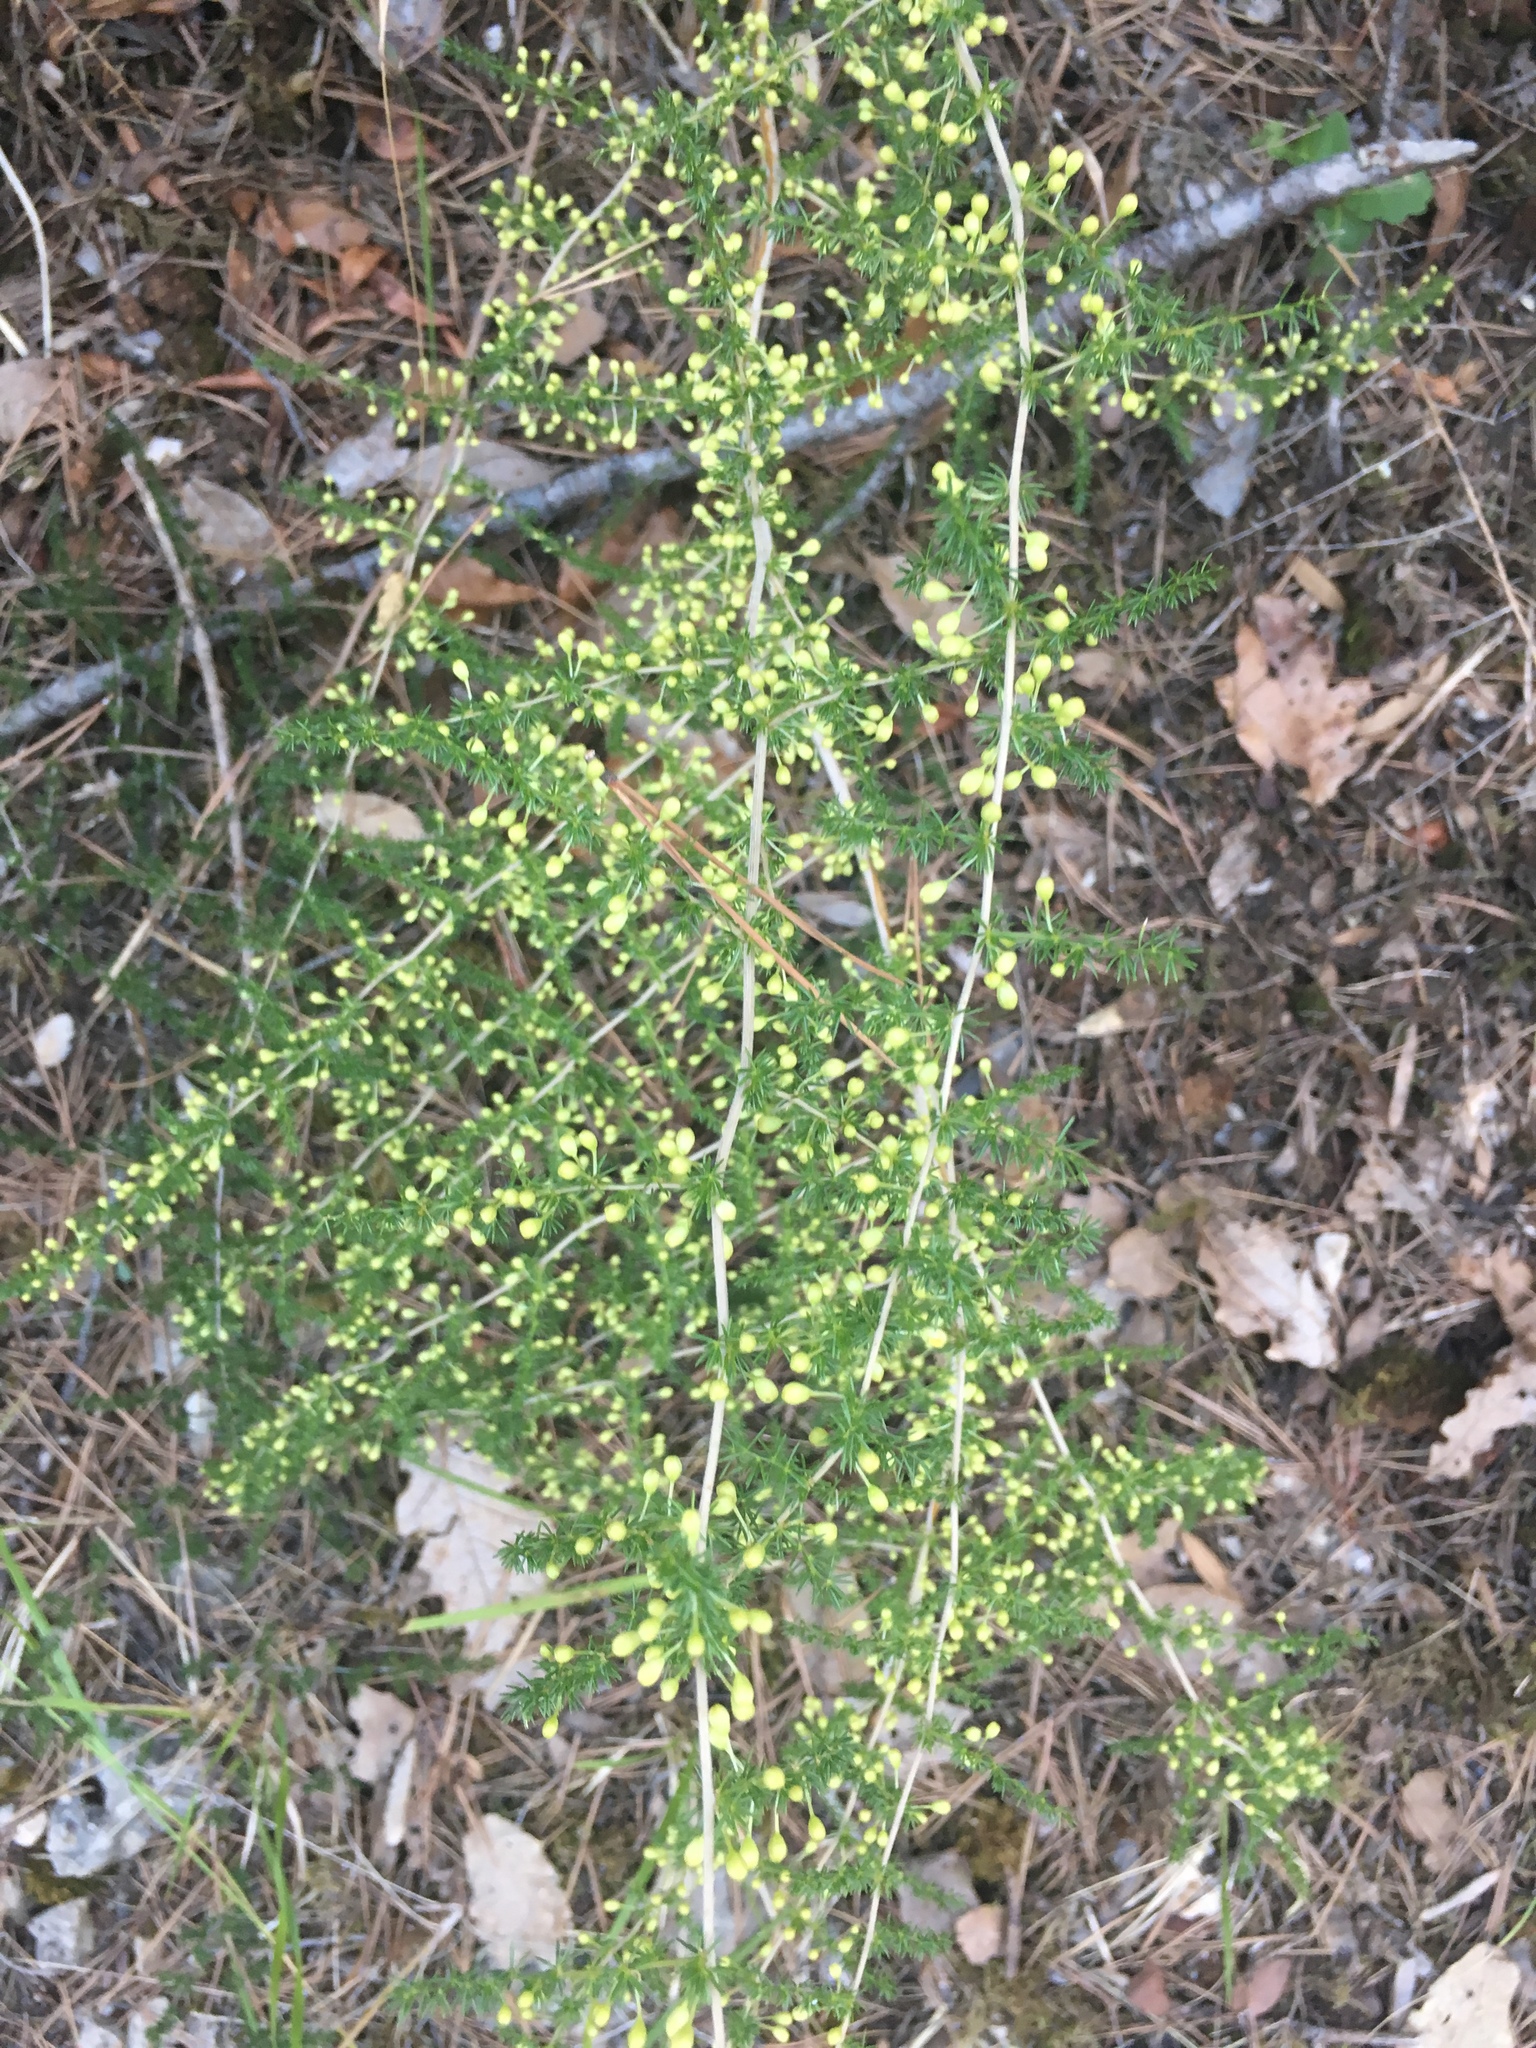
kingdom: Plantae
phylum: Tracheophyta
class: Liliopsida
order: Asparagales
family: Asparagaceae
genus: Asparagus
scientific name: Asparagus acutifolius
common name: Wild asparagus
